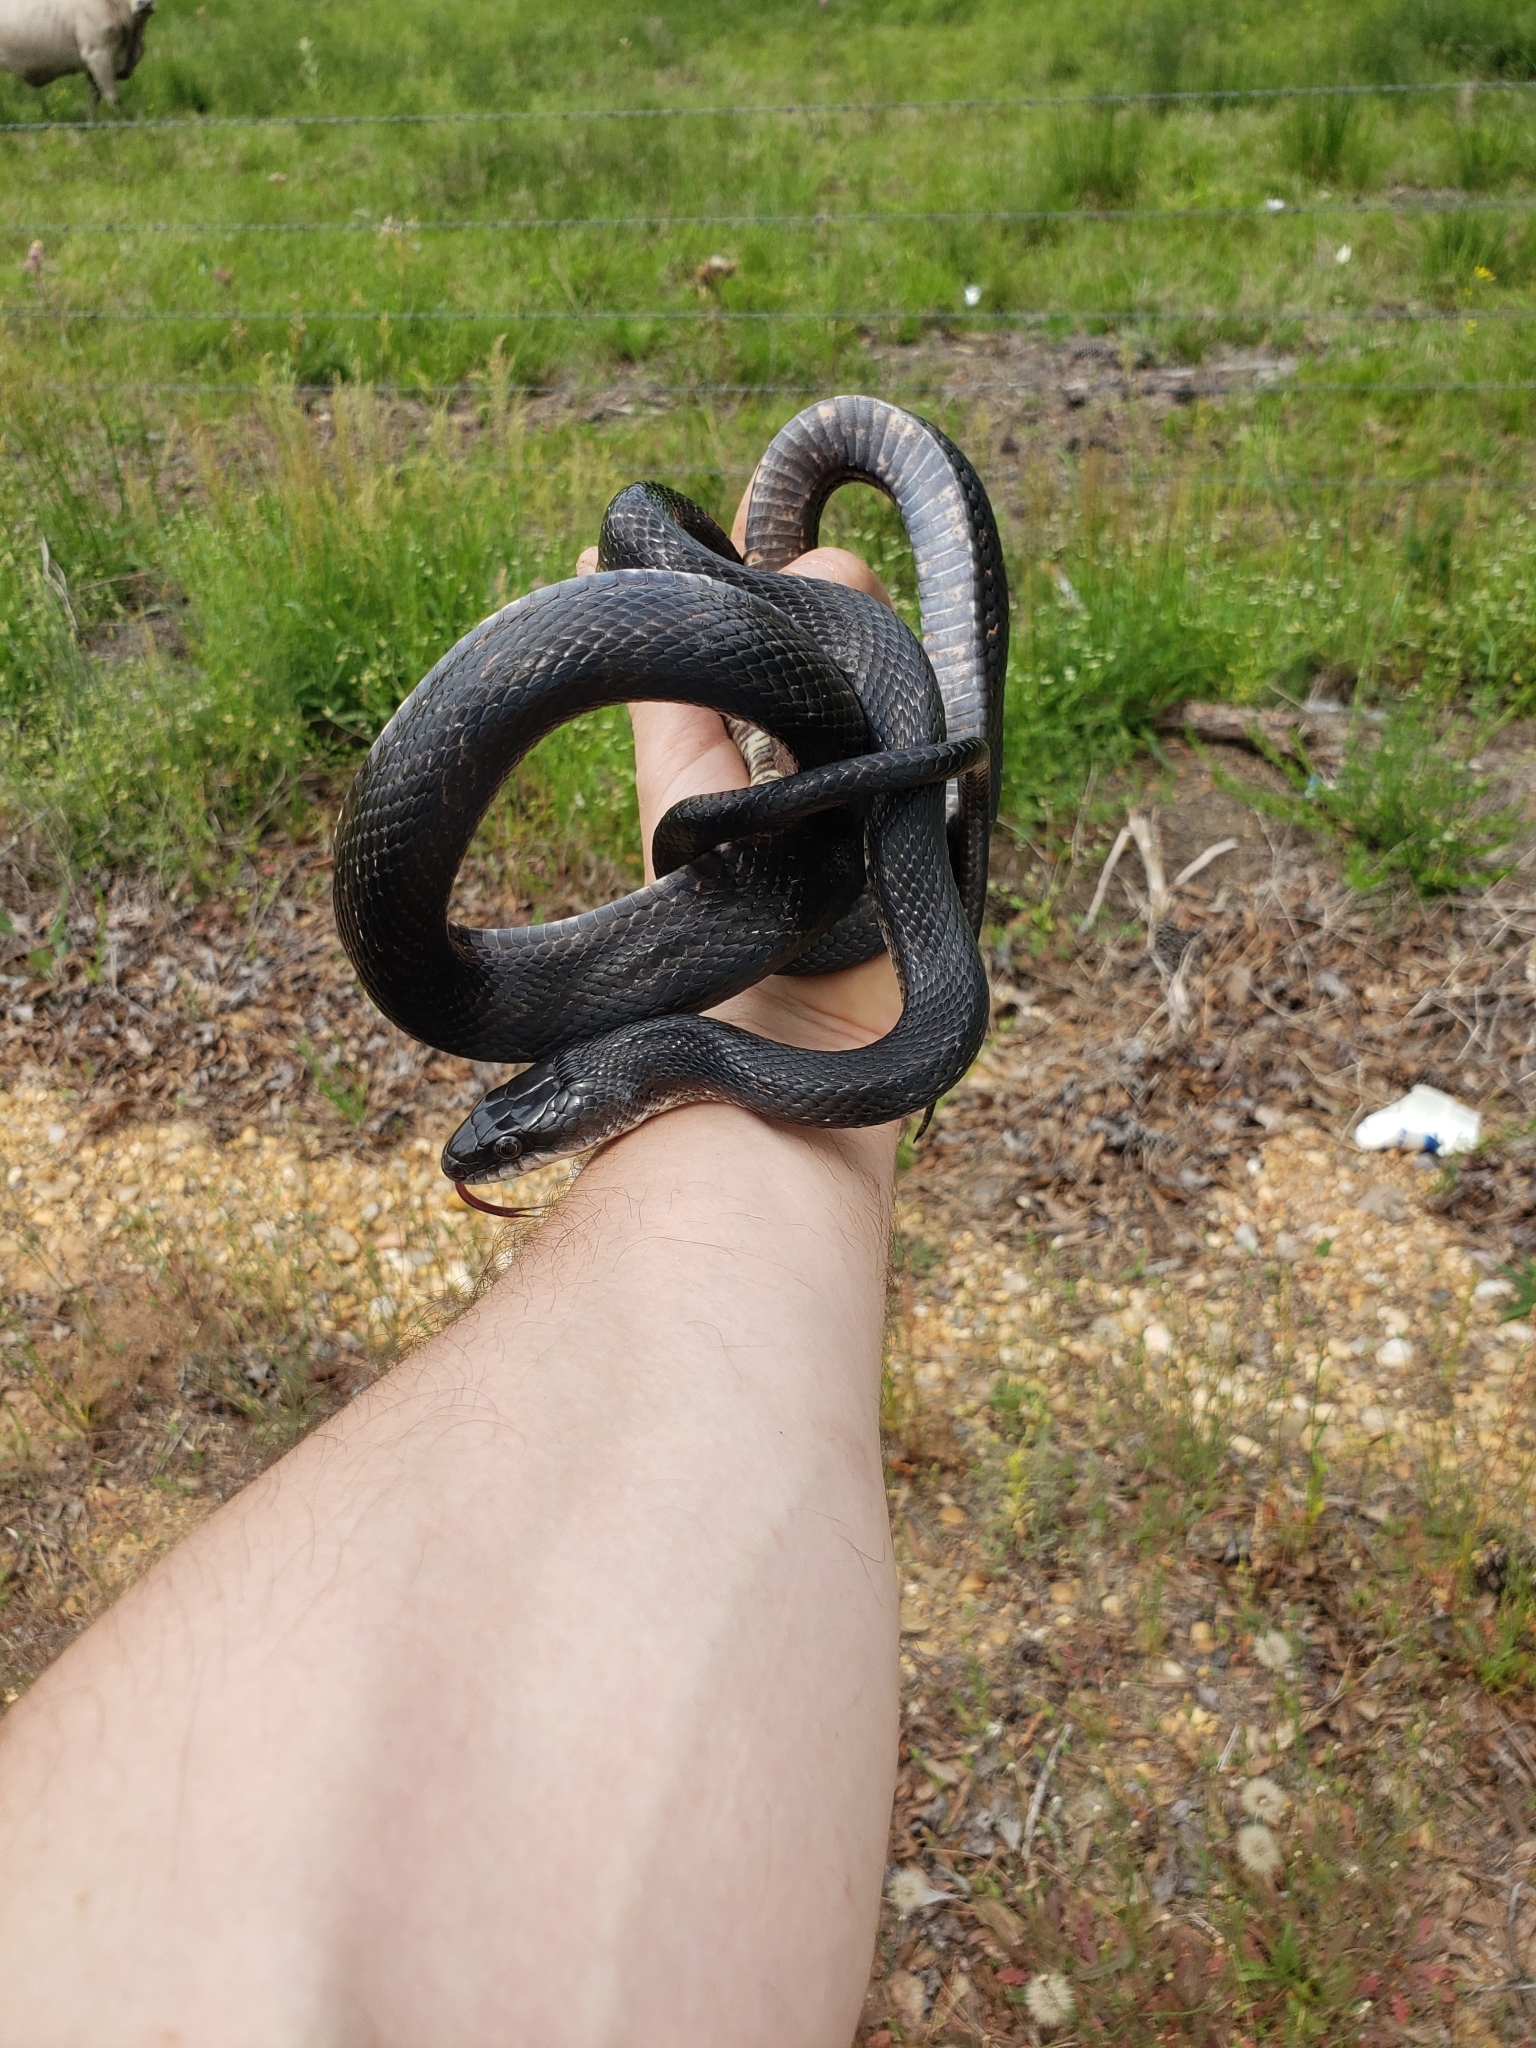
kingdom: Animalia
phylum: Chordata
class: Squamata
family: Colubridae
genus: Pantherophis
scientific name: Pantherophis obsoletus
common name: Black rat snake
